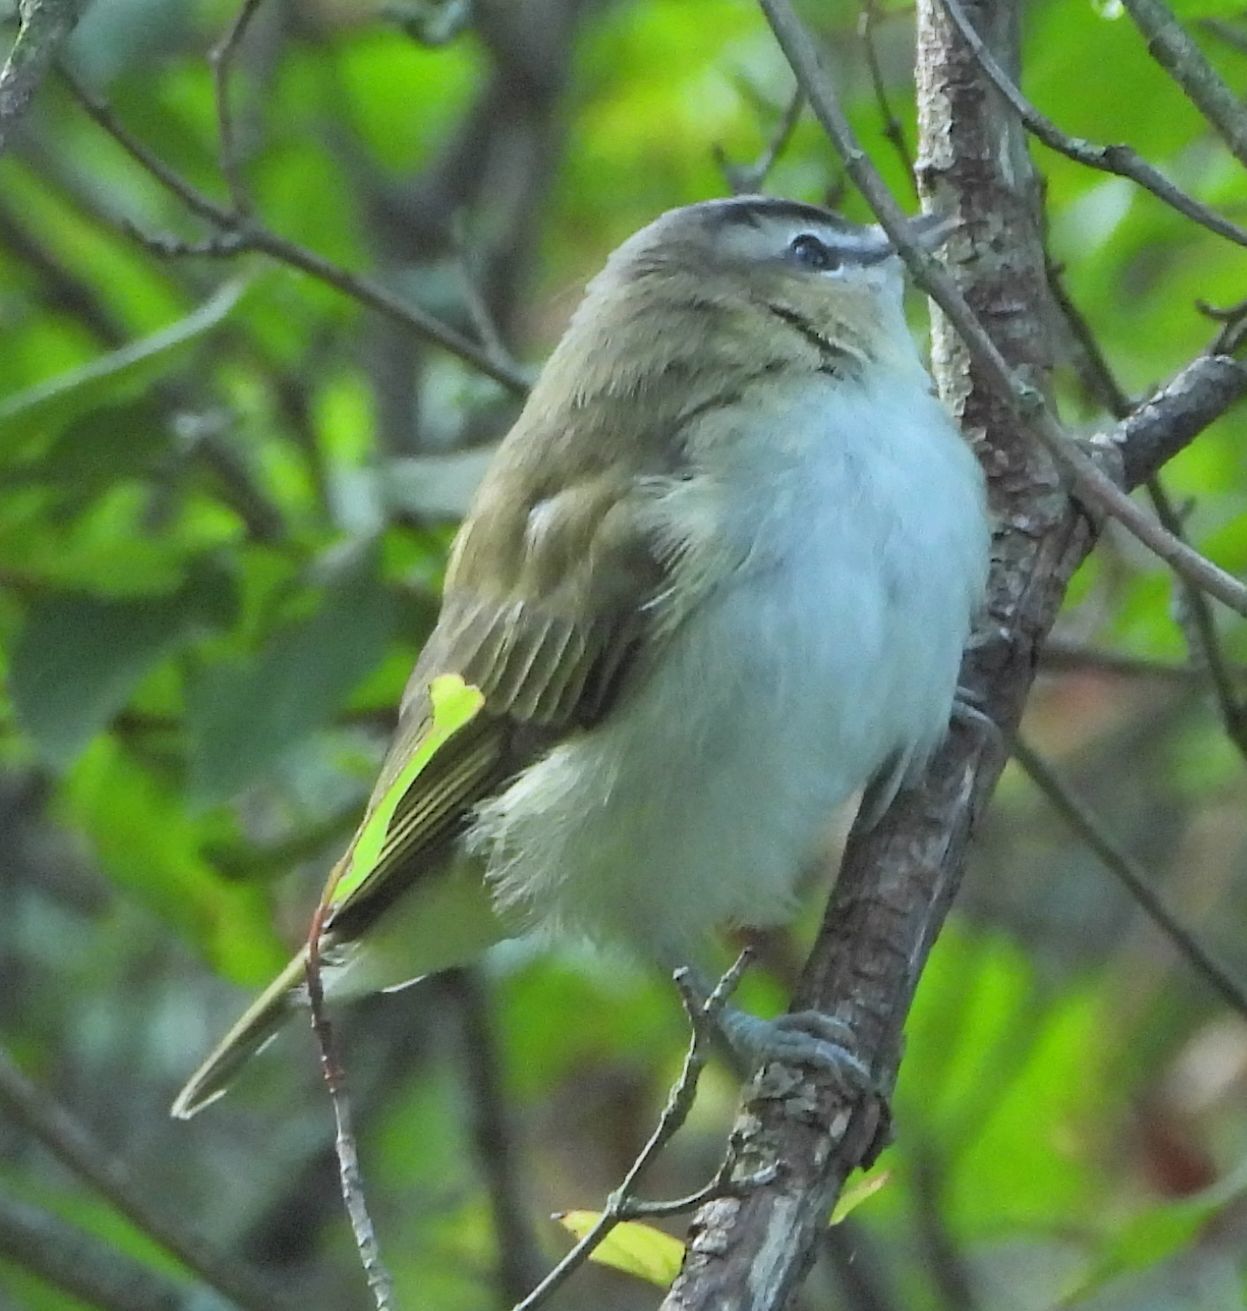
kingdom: Animalia
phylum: Chordata
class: Aves
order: Passeriformes
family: Vireonidae
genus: Vireo
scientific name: Vireo olivaceus
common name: Red-eyed vireo
